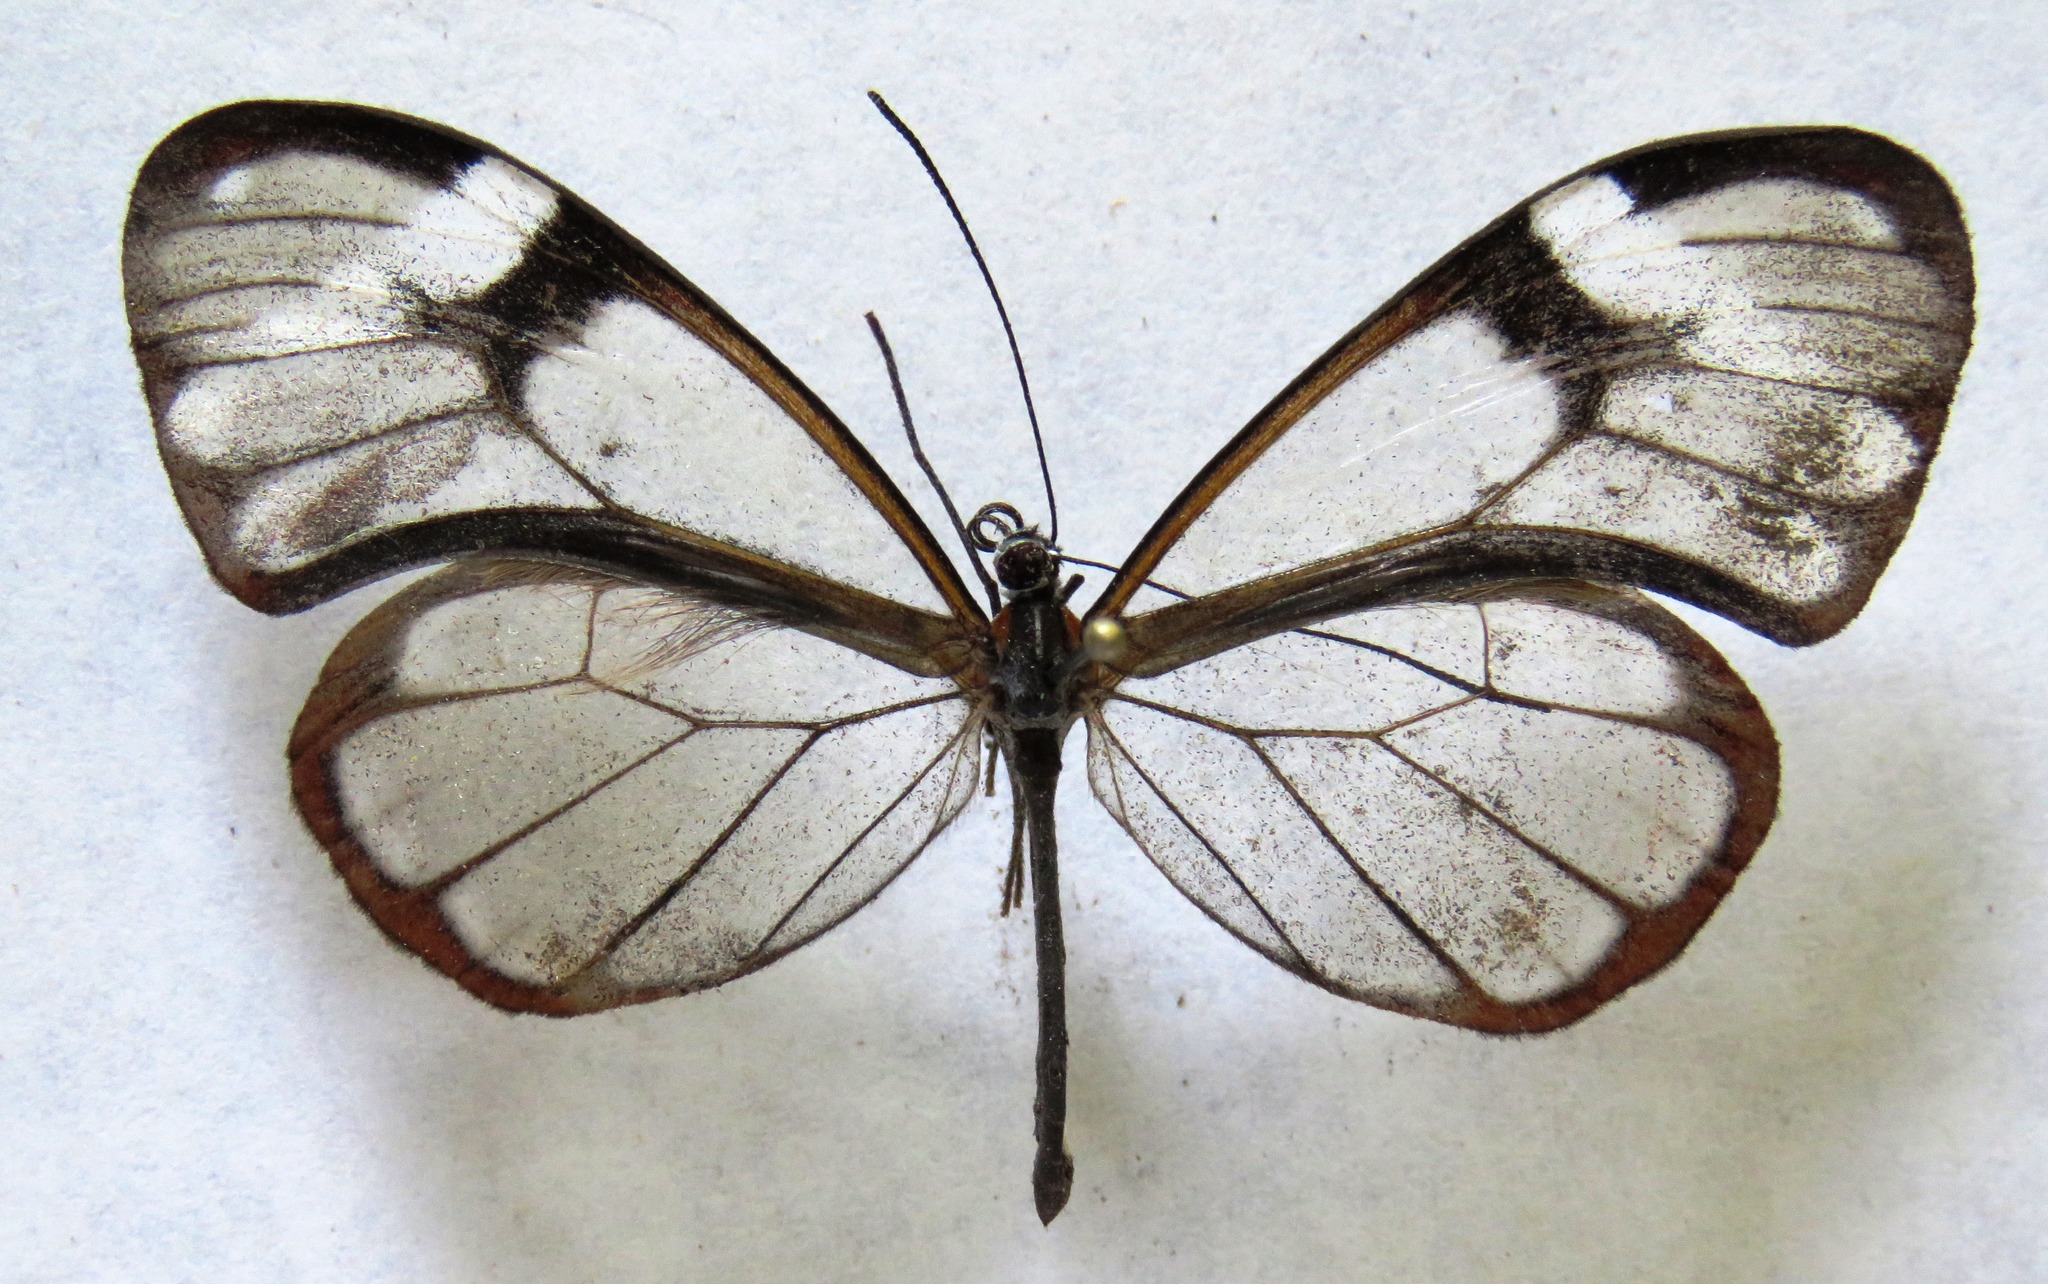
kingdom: Animalia
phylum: Arthropoda
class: Insecta
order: Lepidoptera
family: Nymphalidae
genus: Godyris
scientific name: Godyris nero
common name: Nero clearwing
